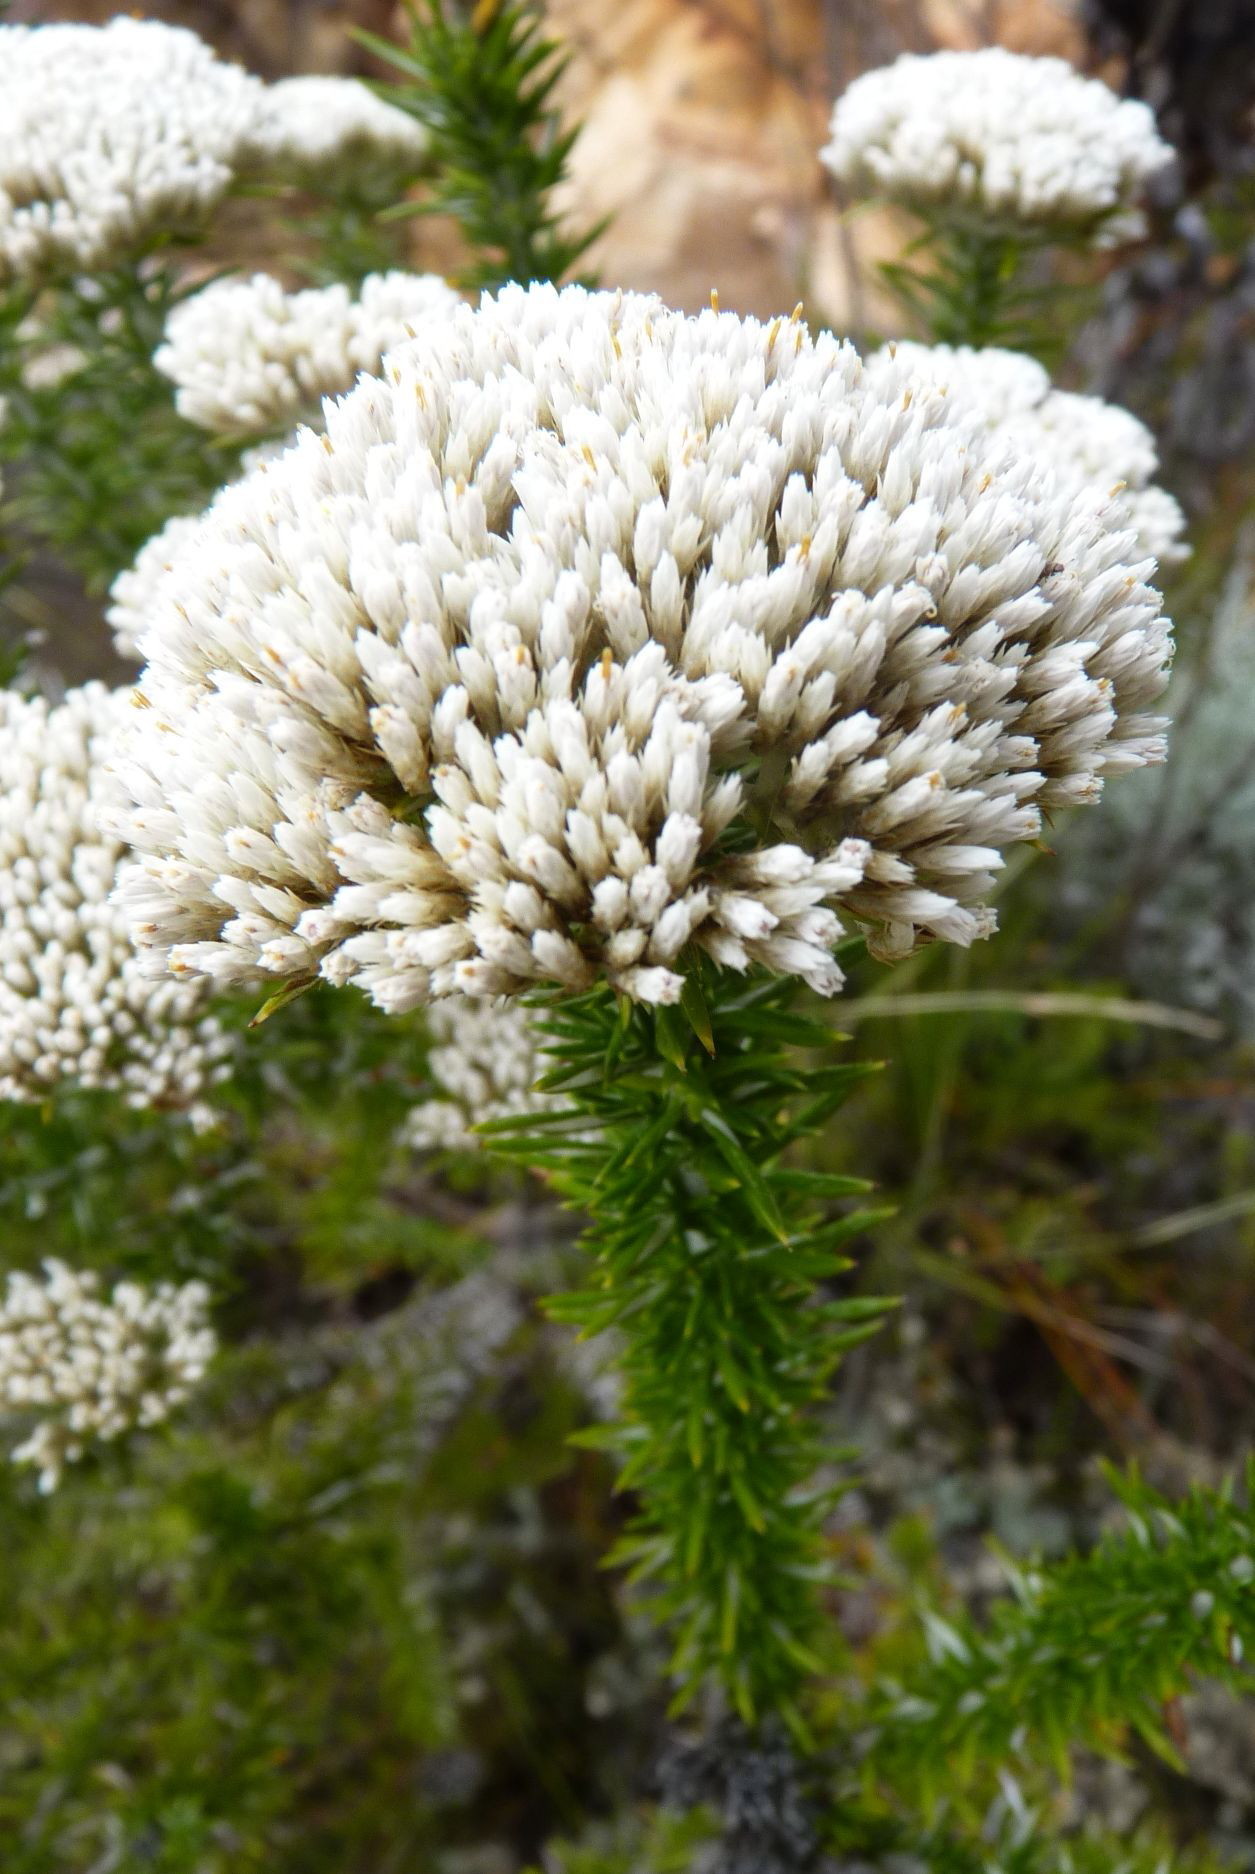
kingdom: Plantae
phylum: Tracheophyta
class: Magnoliopsida
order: Asterales
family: Asteraceae
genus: Metalasia
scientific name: Metalasia acuta
